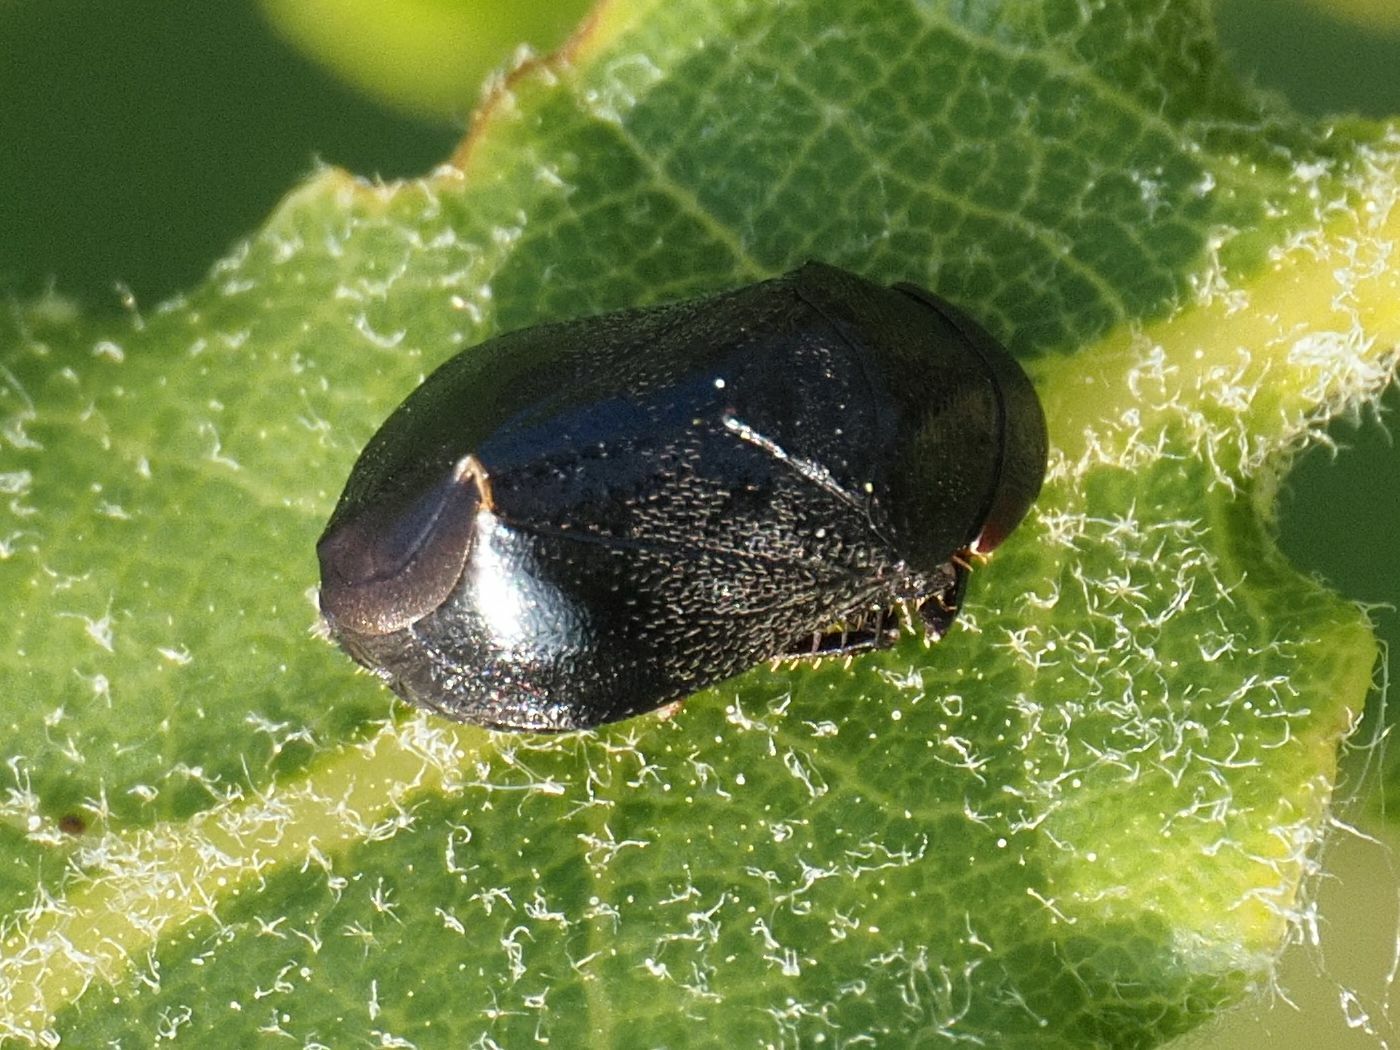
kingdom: Animalia
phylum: Arthropoda
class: Insecta
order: Hemiptera
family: Cicadellidae
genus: Penthimia
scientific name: Penthimia nigra
